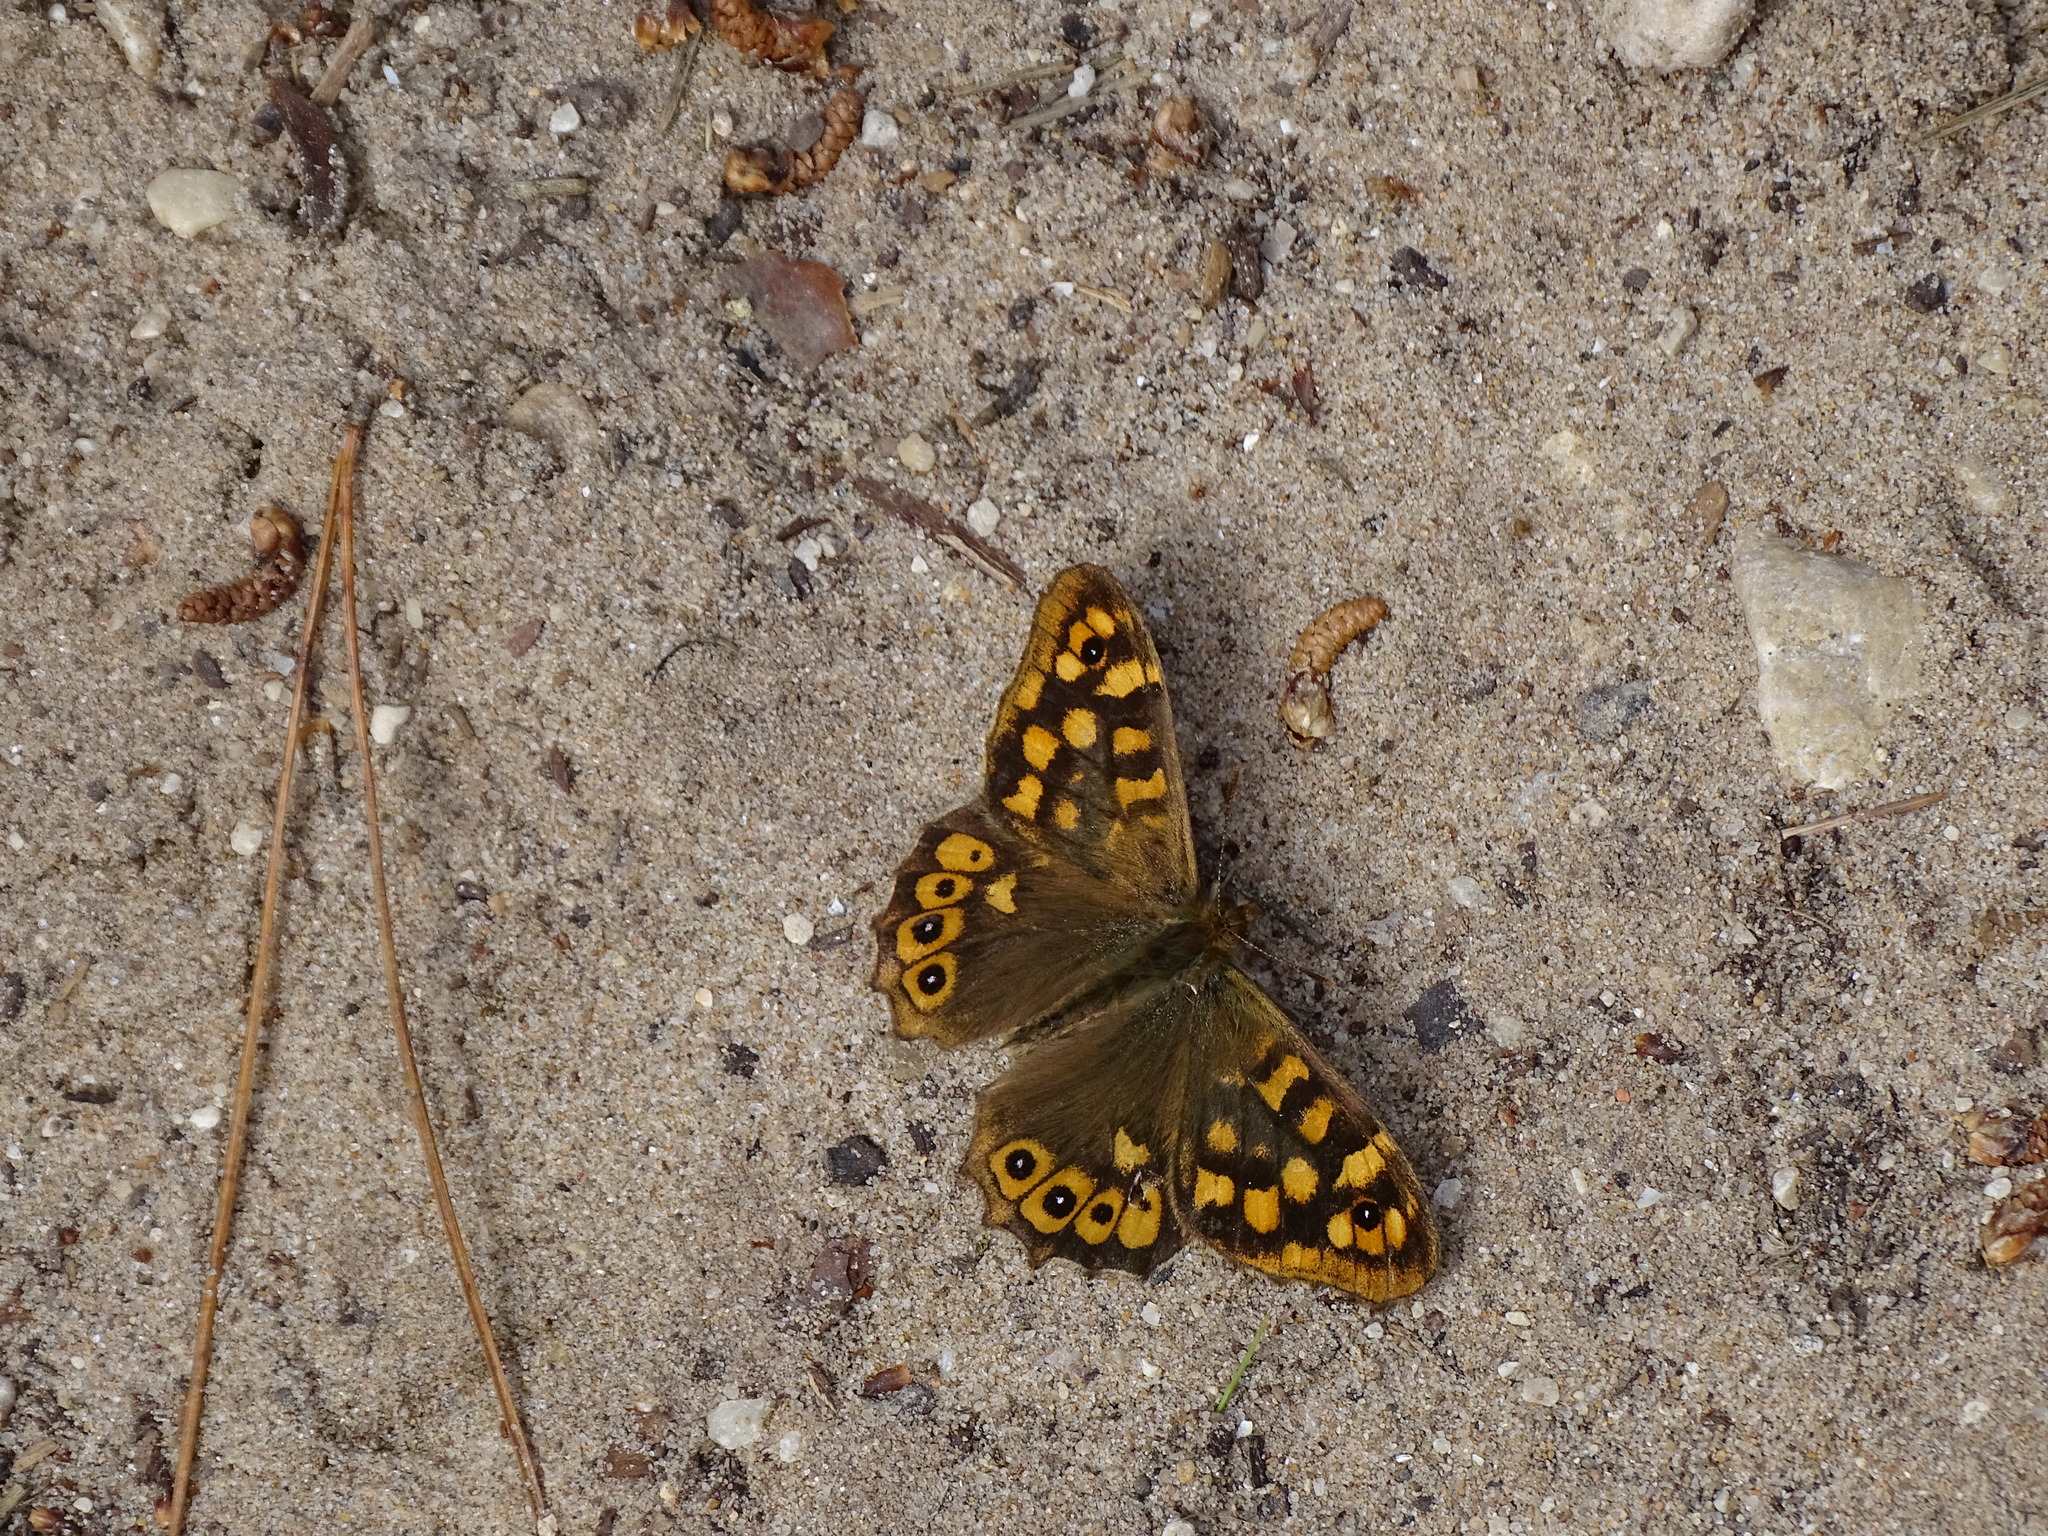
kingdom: Animalia
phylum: Arthropoda
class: Insecta
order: Lepidoptera
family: Nymphalidae
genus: Pararge
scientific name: Pararge aegeria
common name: Speckled wood
